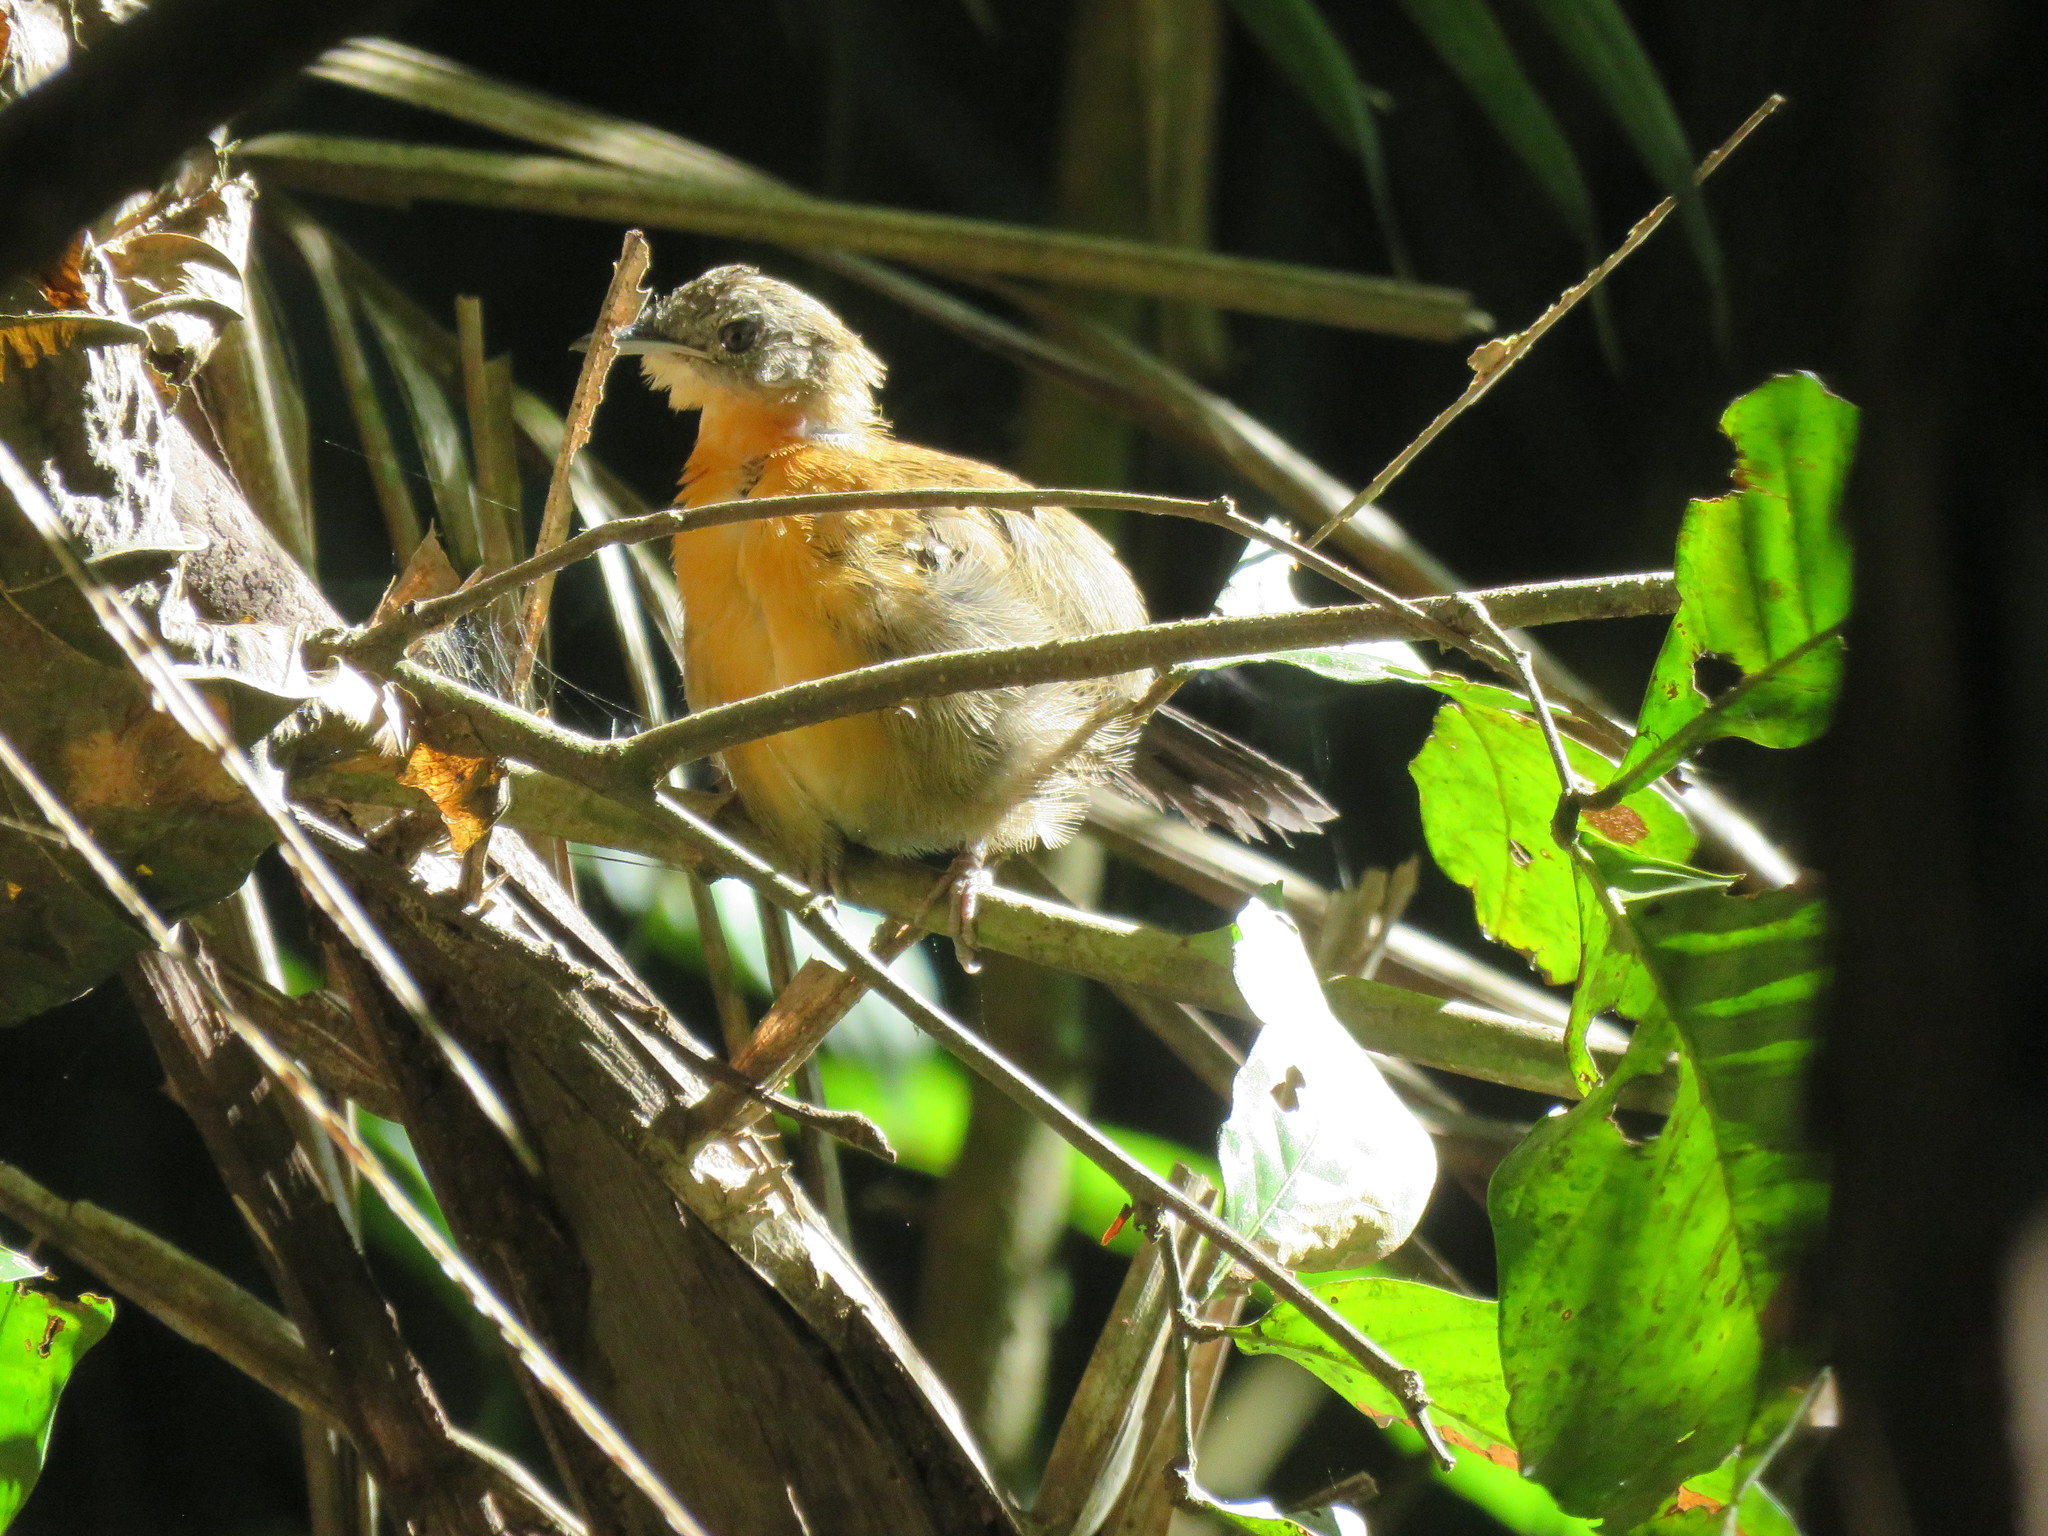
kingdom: Animalia
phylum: Chordata
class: Aves
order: Passeriformes
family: Thamnophilidae
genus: Myrmeciza
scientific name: Myrmeciza atrothorax
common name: Black-throated antbird
